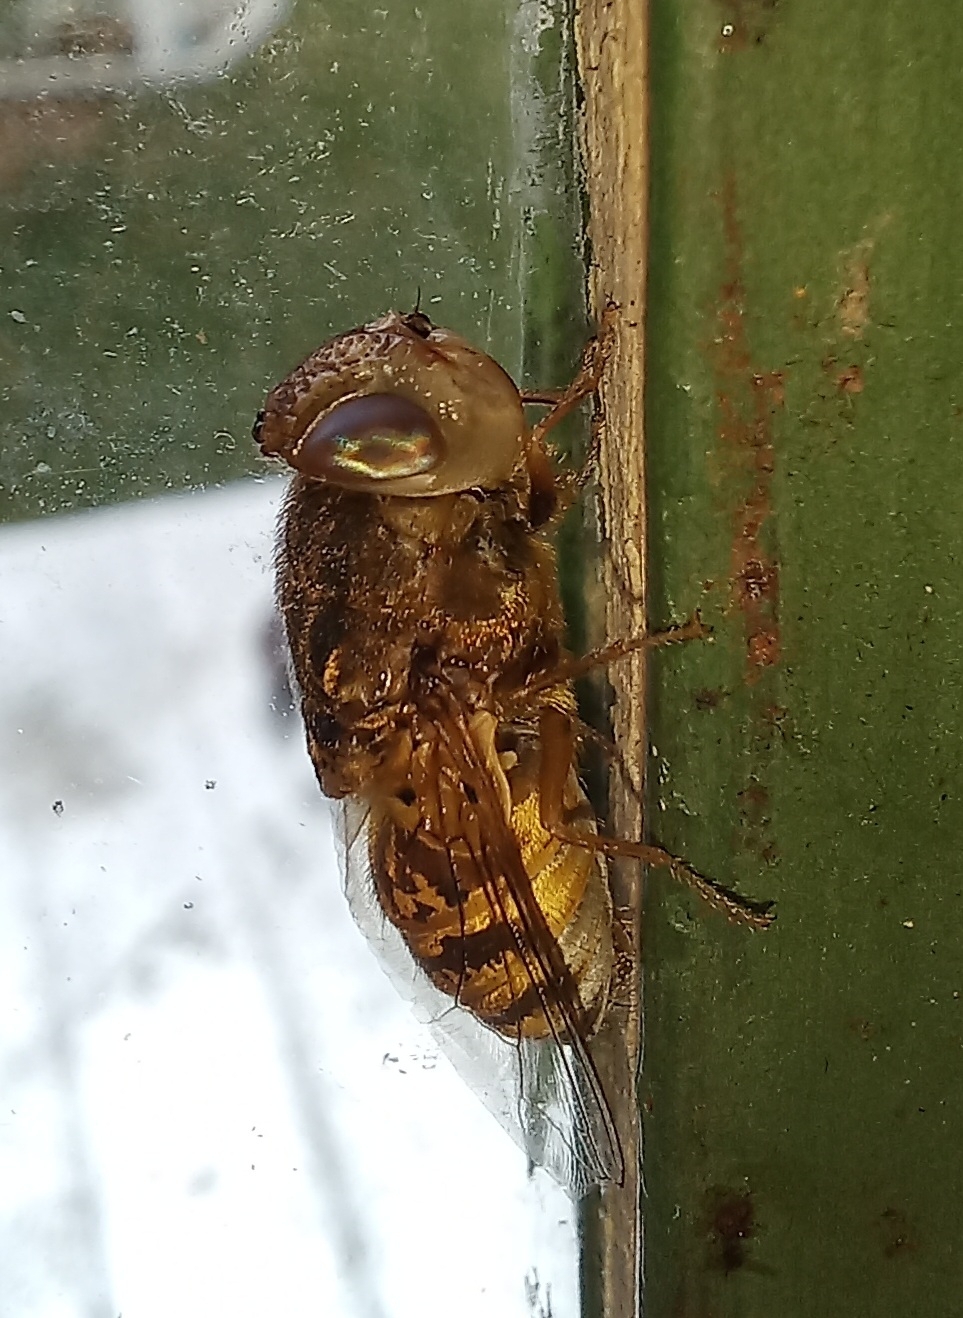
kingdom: Animalia
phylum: Arthropoda
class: Insecta
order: Diptera
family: Oestridae
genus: Oestrus
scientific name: Oestrus variolosus
